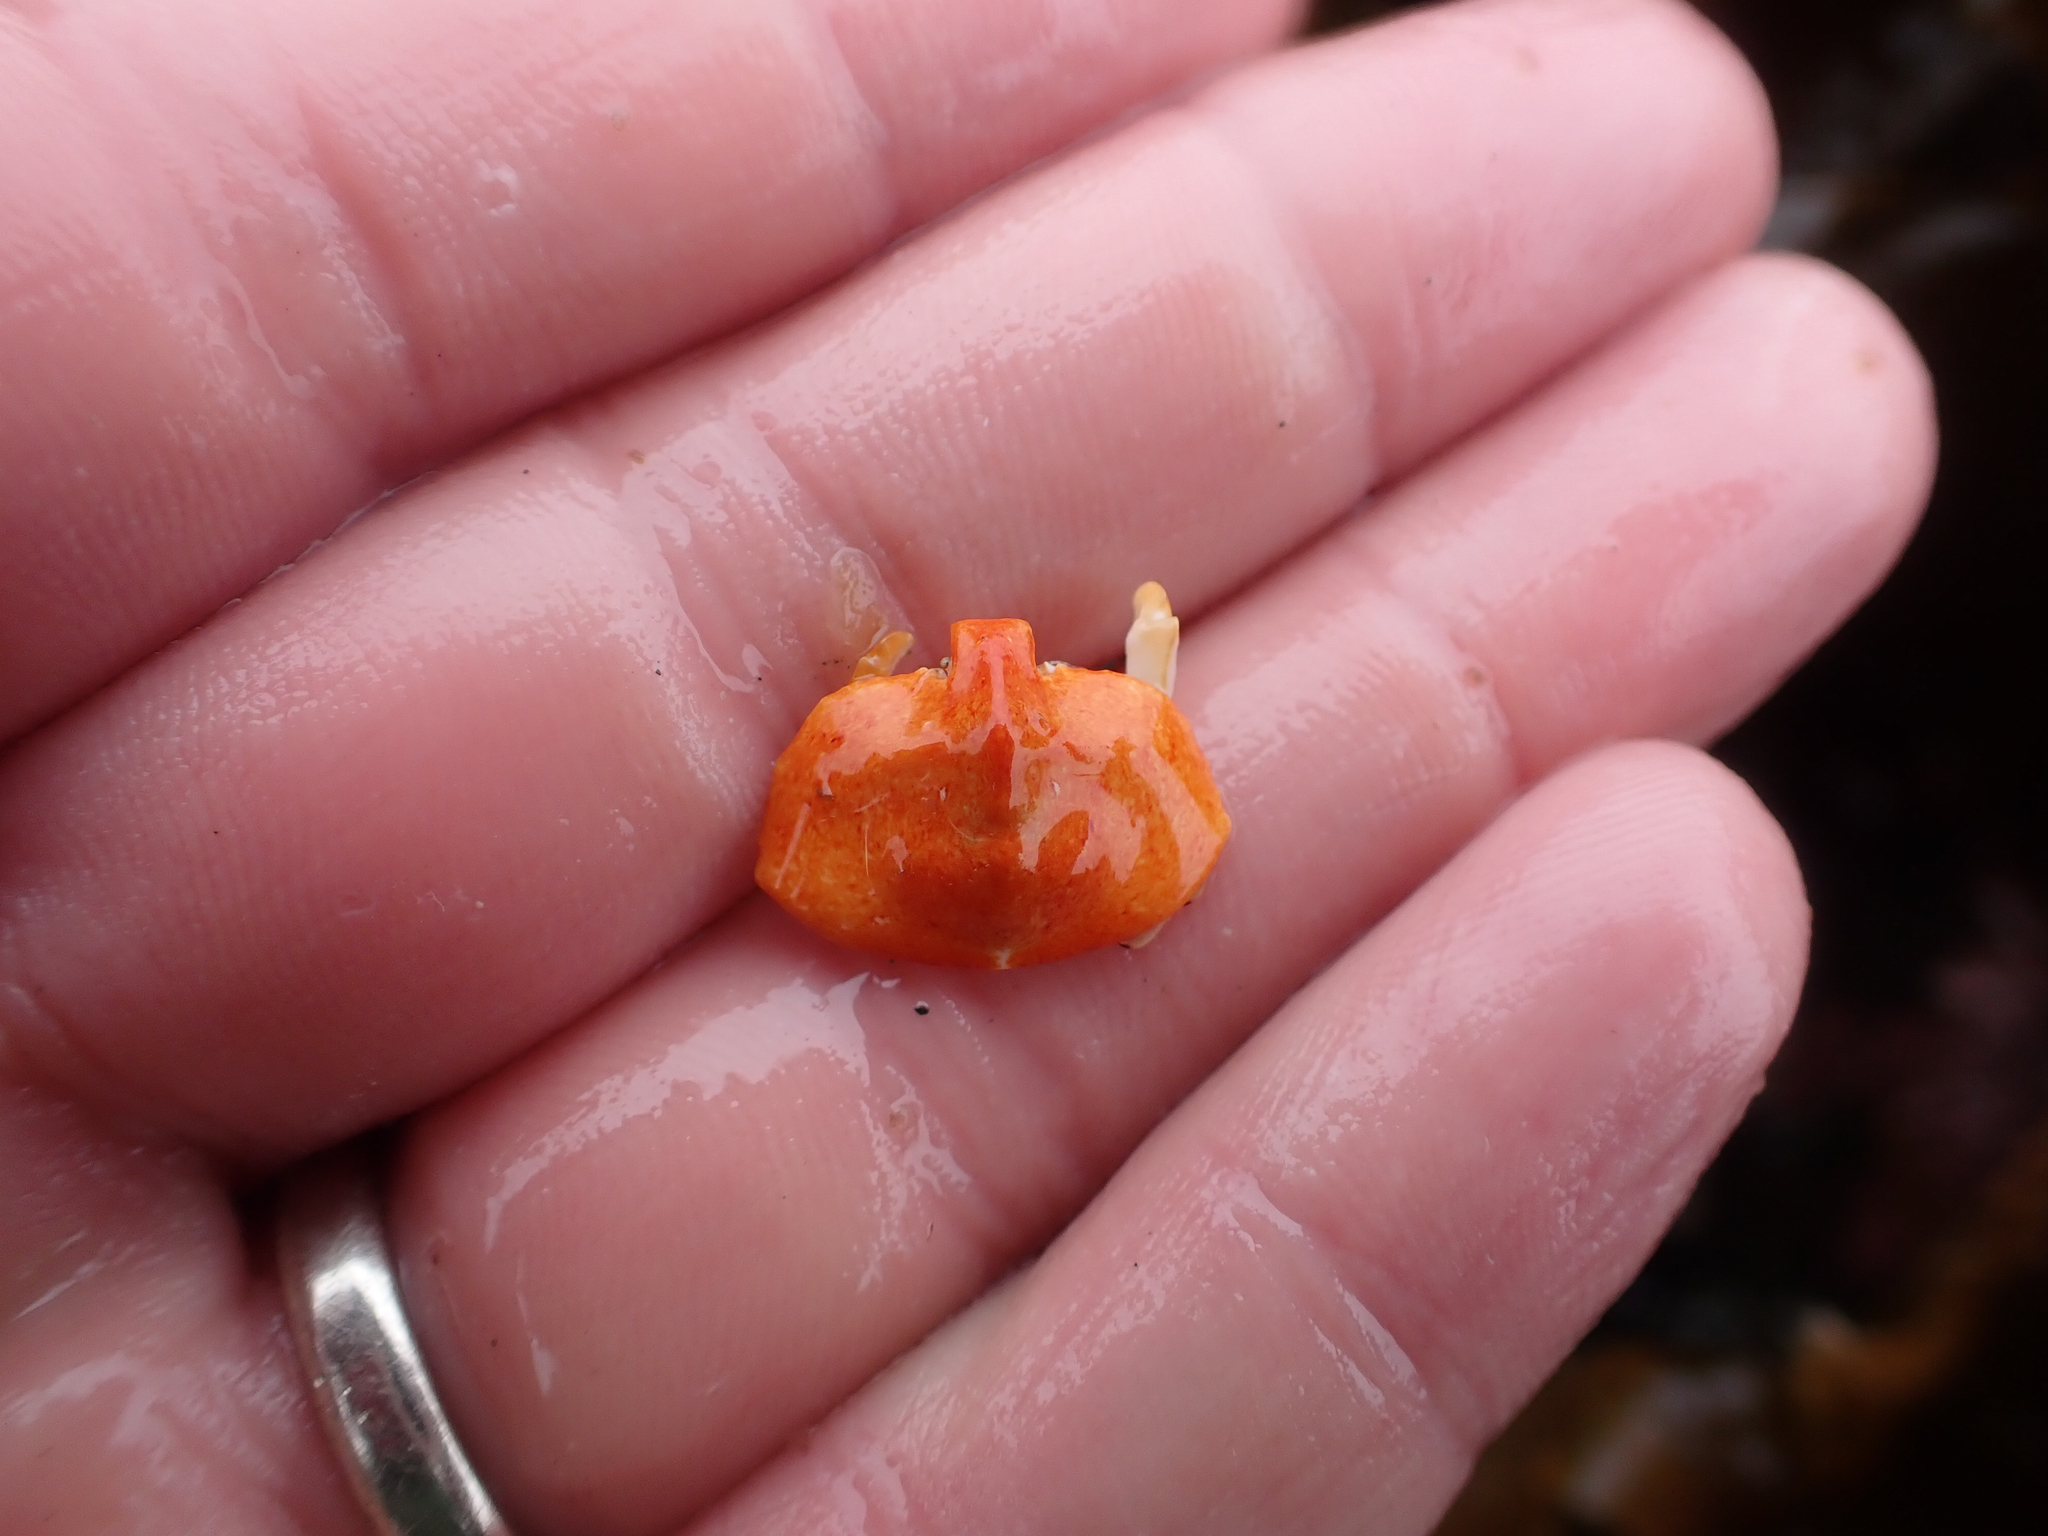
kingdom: Animalia
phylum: Arthropoda
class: Malacostraca
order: Decapoda
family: Lithodidae
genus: Cryptolithodes
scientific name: Cryptolithodes sitchensis
